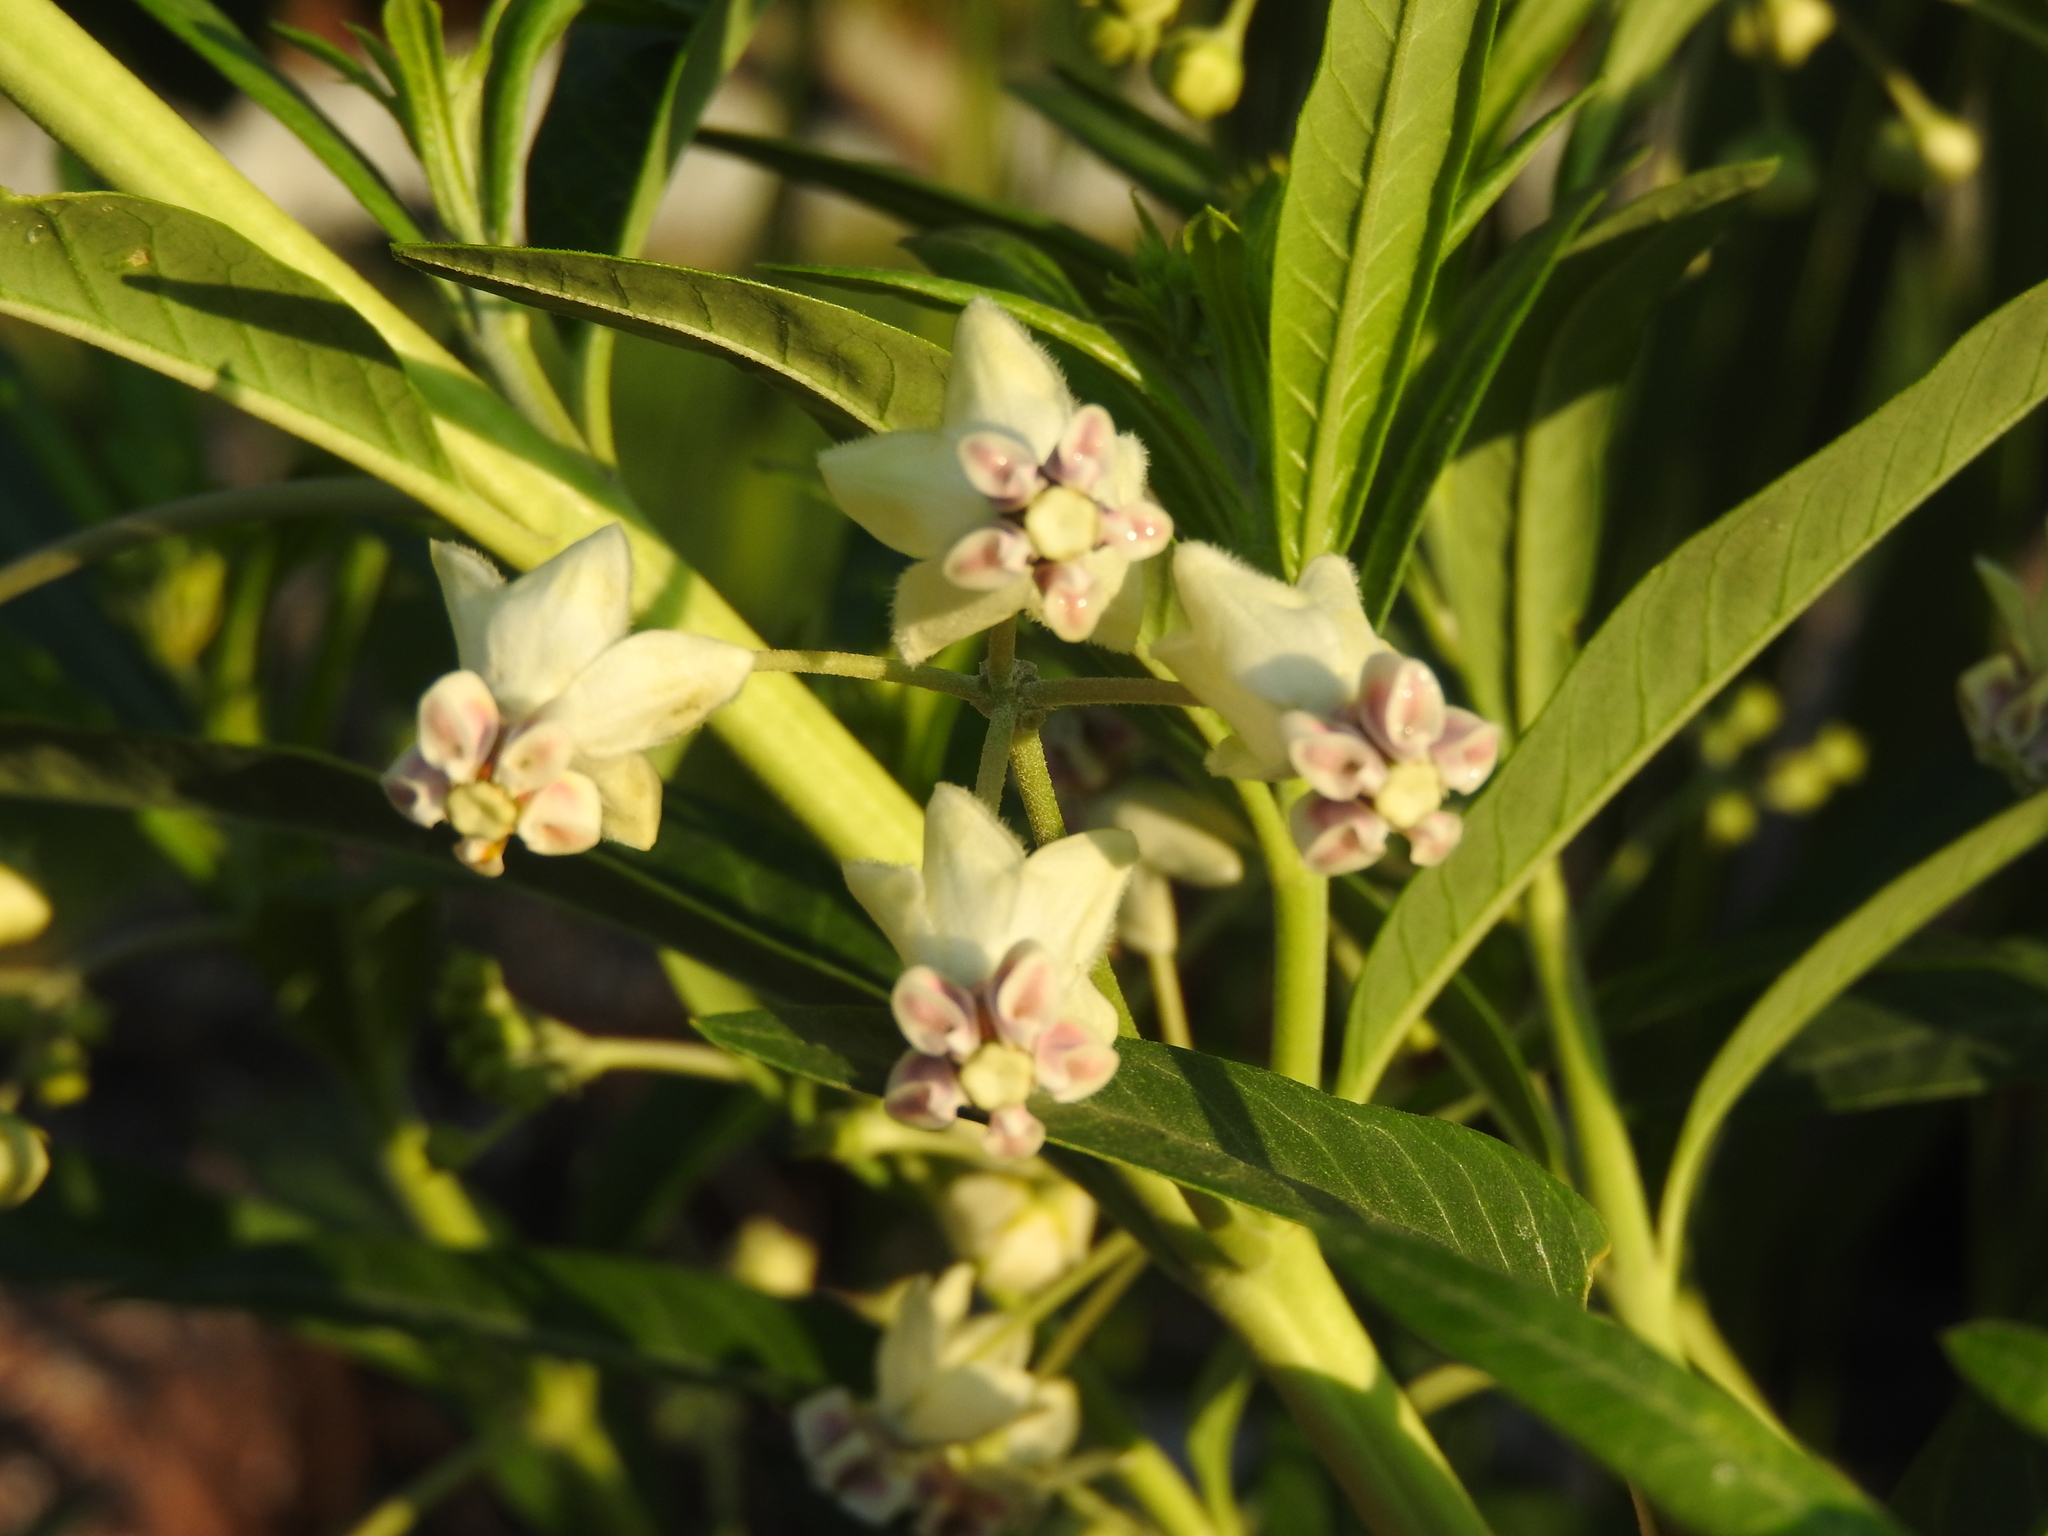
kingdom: Plantae
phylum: Tracheophyta
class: Magnoliopsida
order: Gentianales
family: Apocynaceae
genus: Gomphocarpus
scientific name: Gomphocarpus physocarpus
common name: Balloon cotton bush
